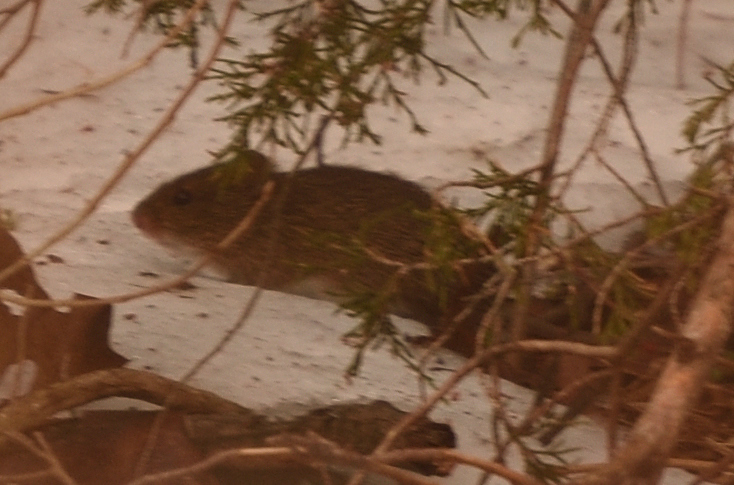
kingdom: Animalia
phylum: Chordata
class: Mammalia
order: Rodentia
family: Cricetidae
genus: Sigmodon
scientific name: Sigmodon hispidus
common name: Hispid cotton rat
